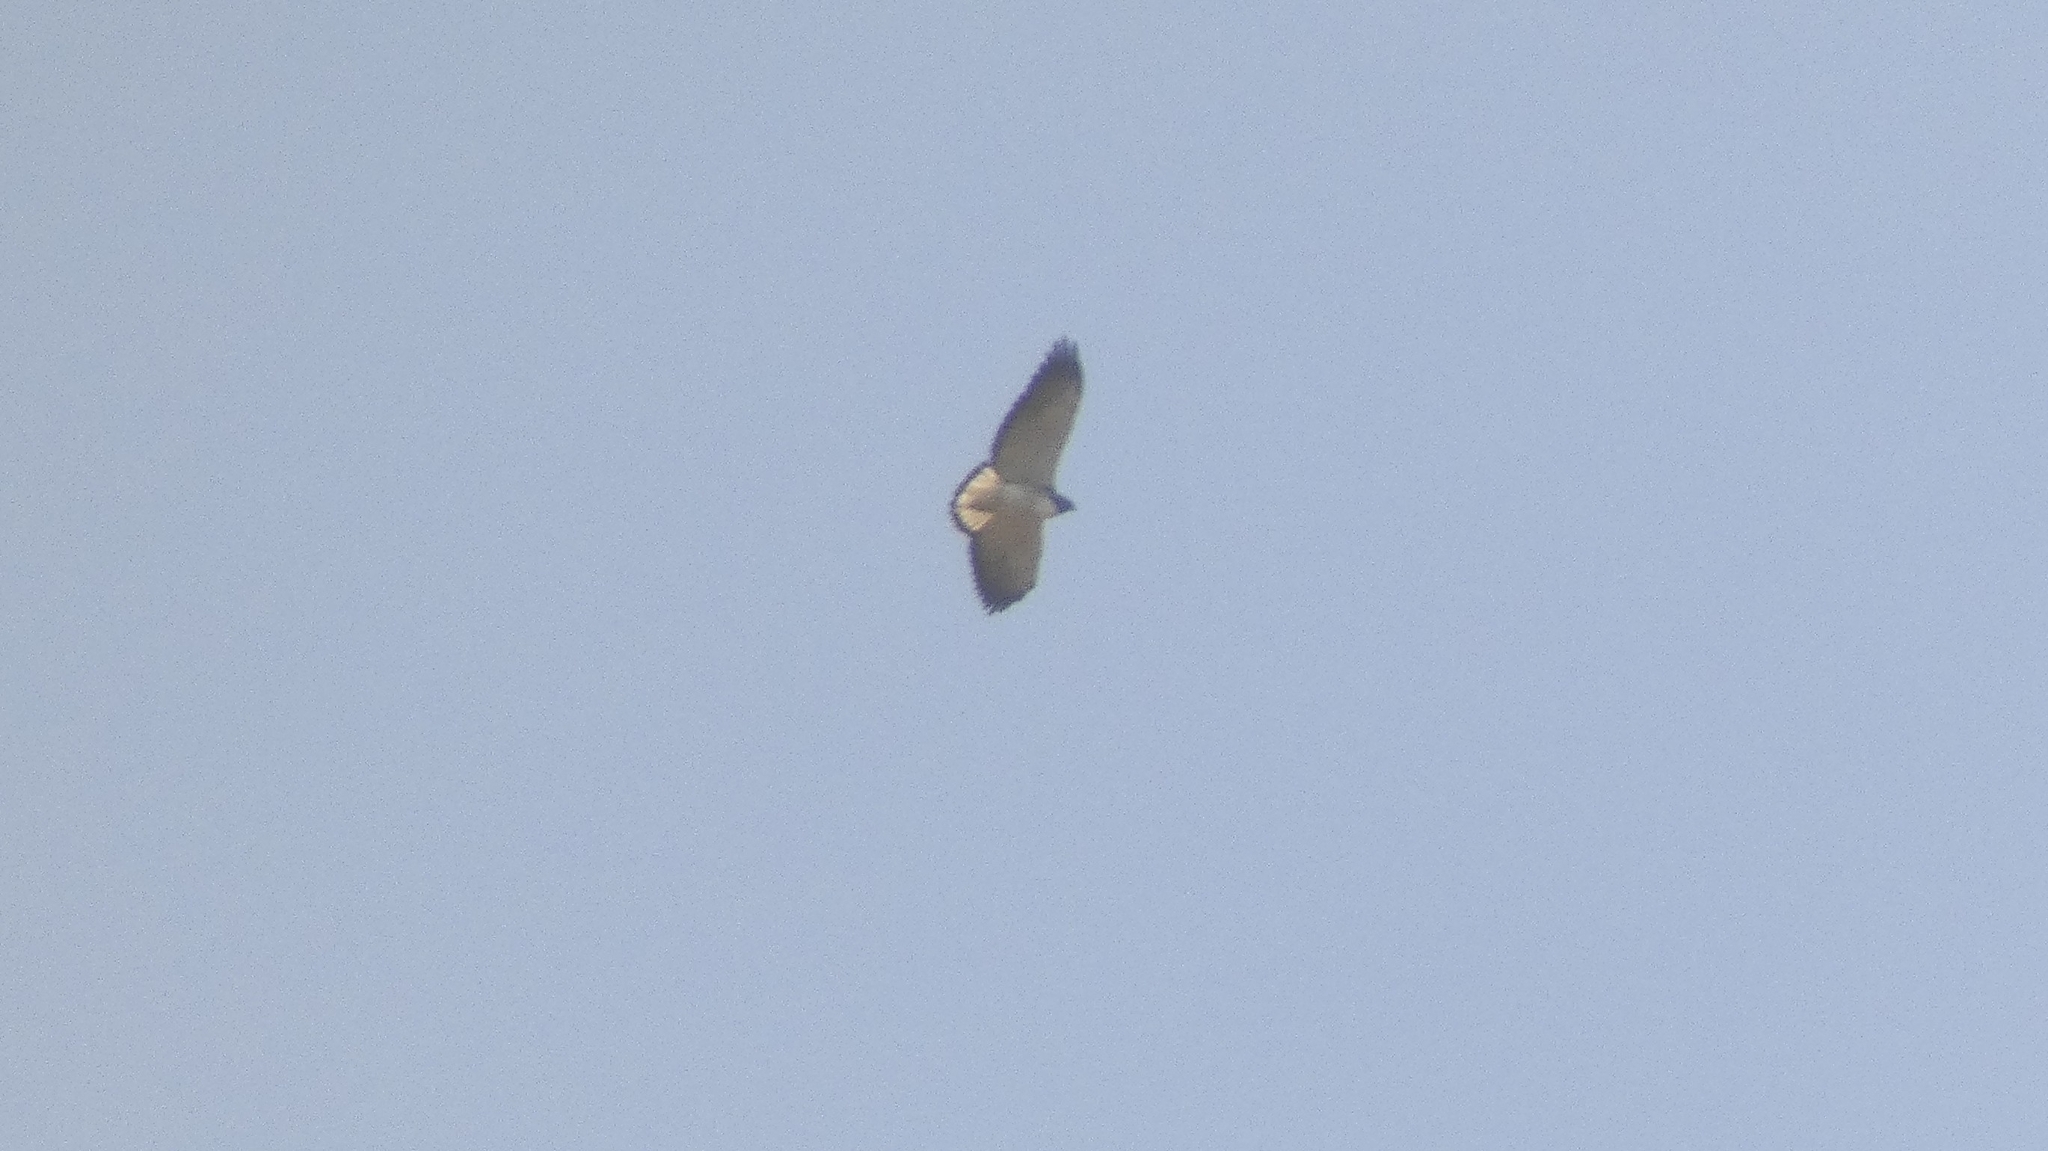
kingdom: Animalia
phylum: Chordata
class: Aves
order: Accipitriformes
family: Accipitridae
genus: Buteo
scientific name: Buteo albicaudatus
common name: White-tailed hawk
